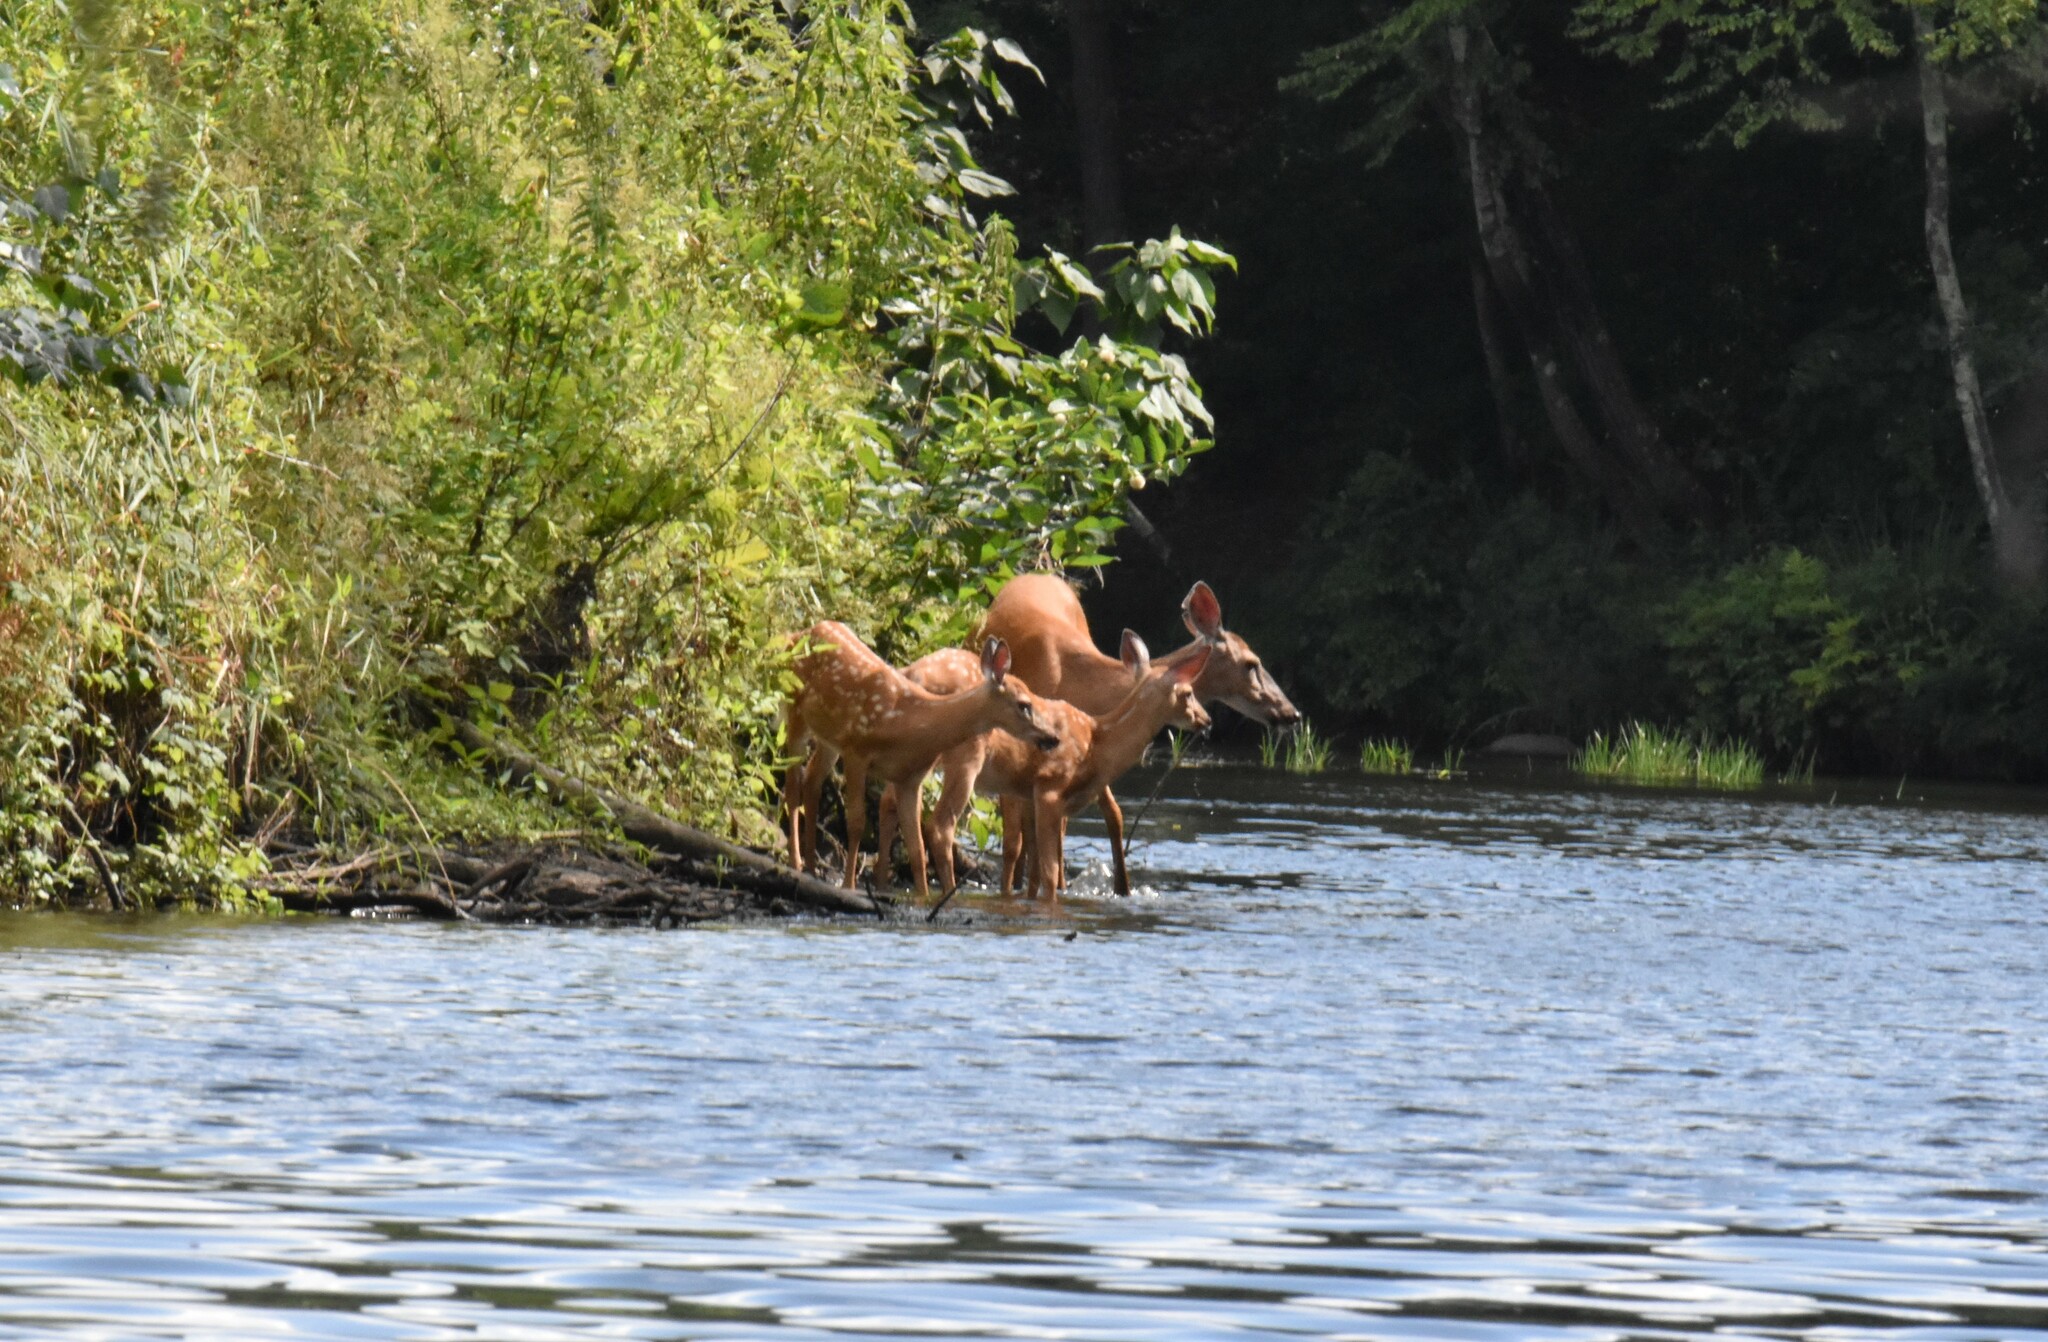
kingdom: Animalia
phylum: Chordata
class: Mammalia
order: Artiodactyla
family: Cervidae
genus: Odocoileus
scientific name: Odocoileus virginianus
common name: White-tailed deer
